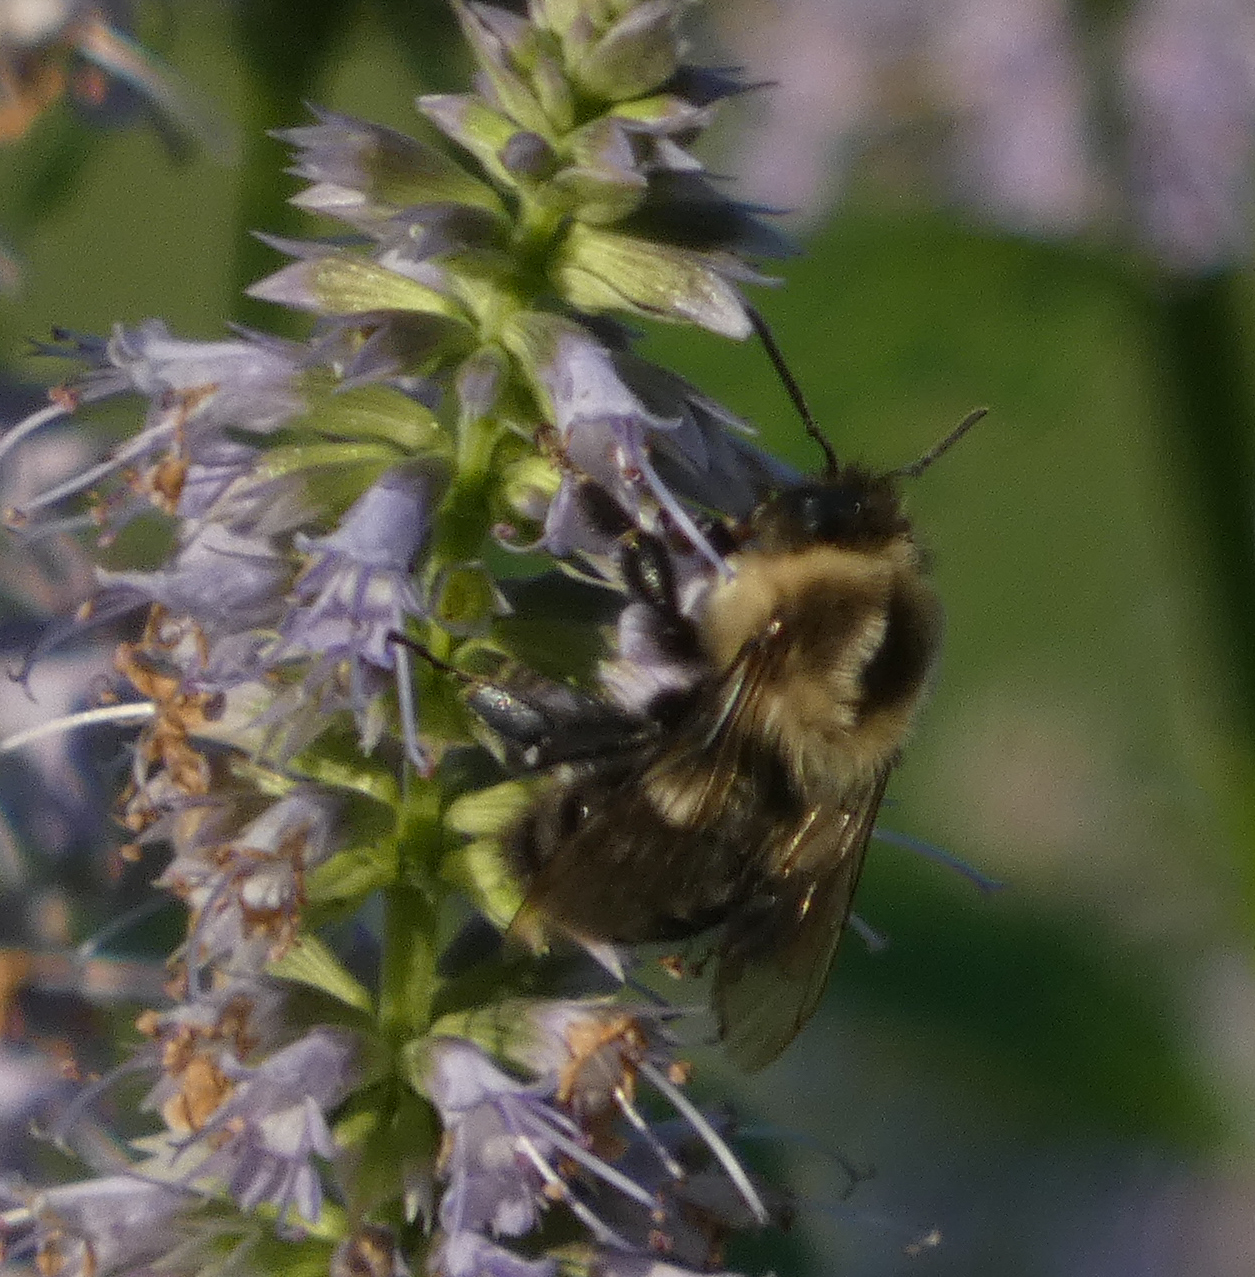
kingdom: Animalia
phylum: Arthropoda
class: Insecta
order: Hymenoptera
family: Apidae
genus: Bombus
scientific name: Bombus impatiens
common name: Common eastern bumble bee
